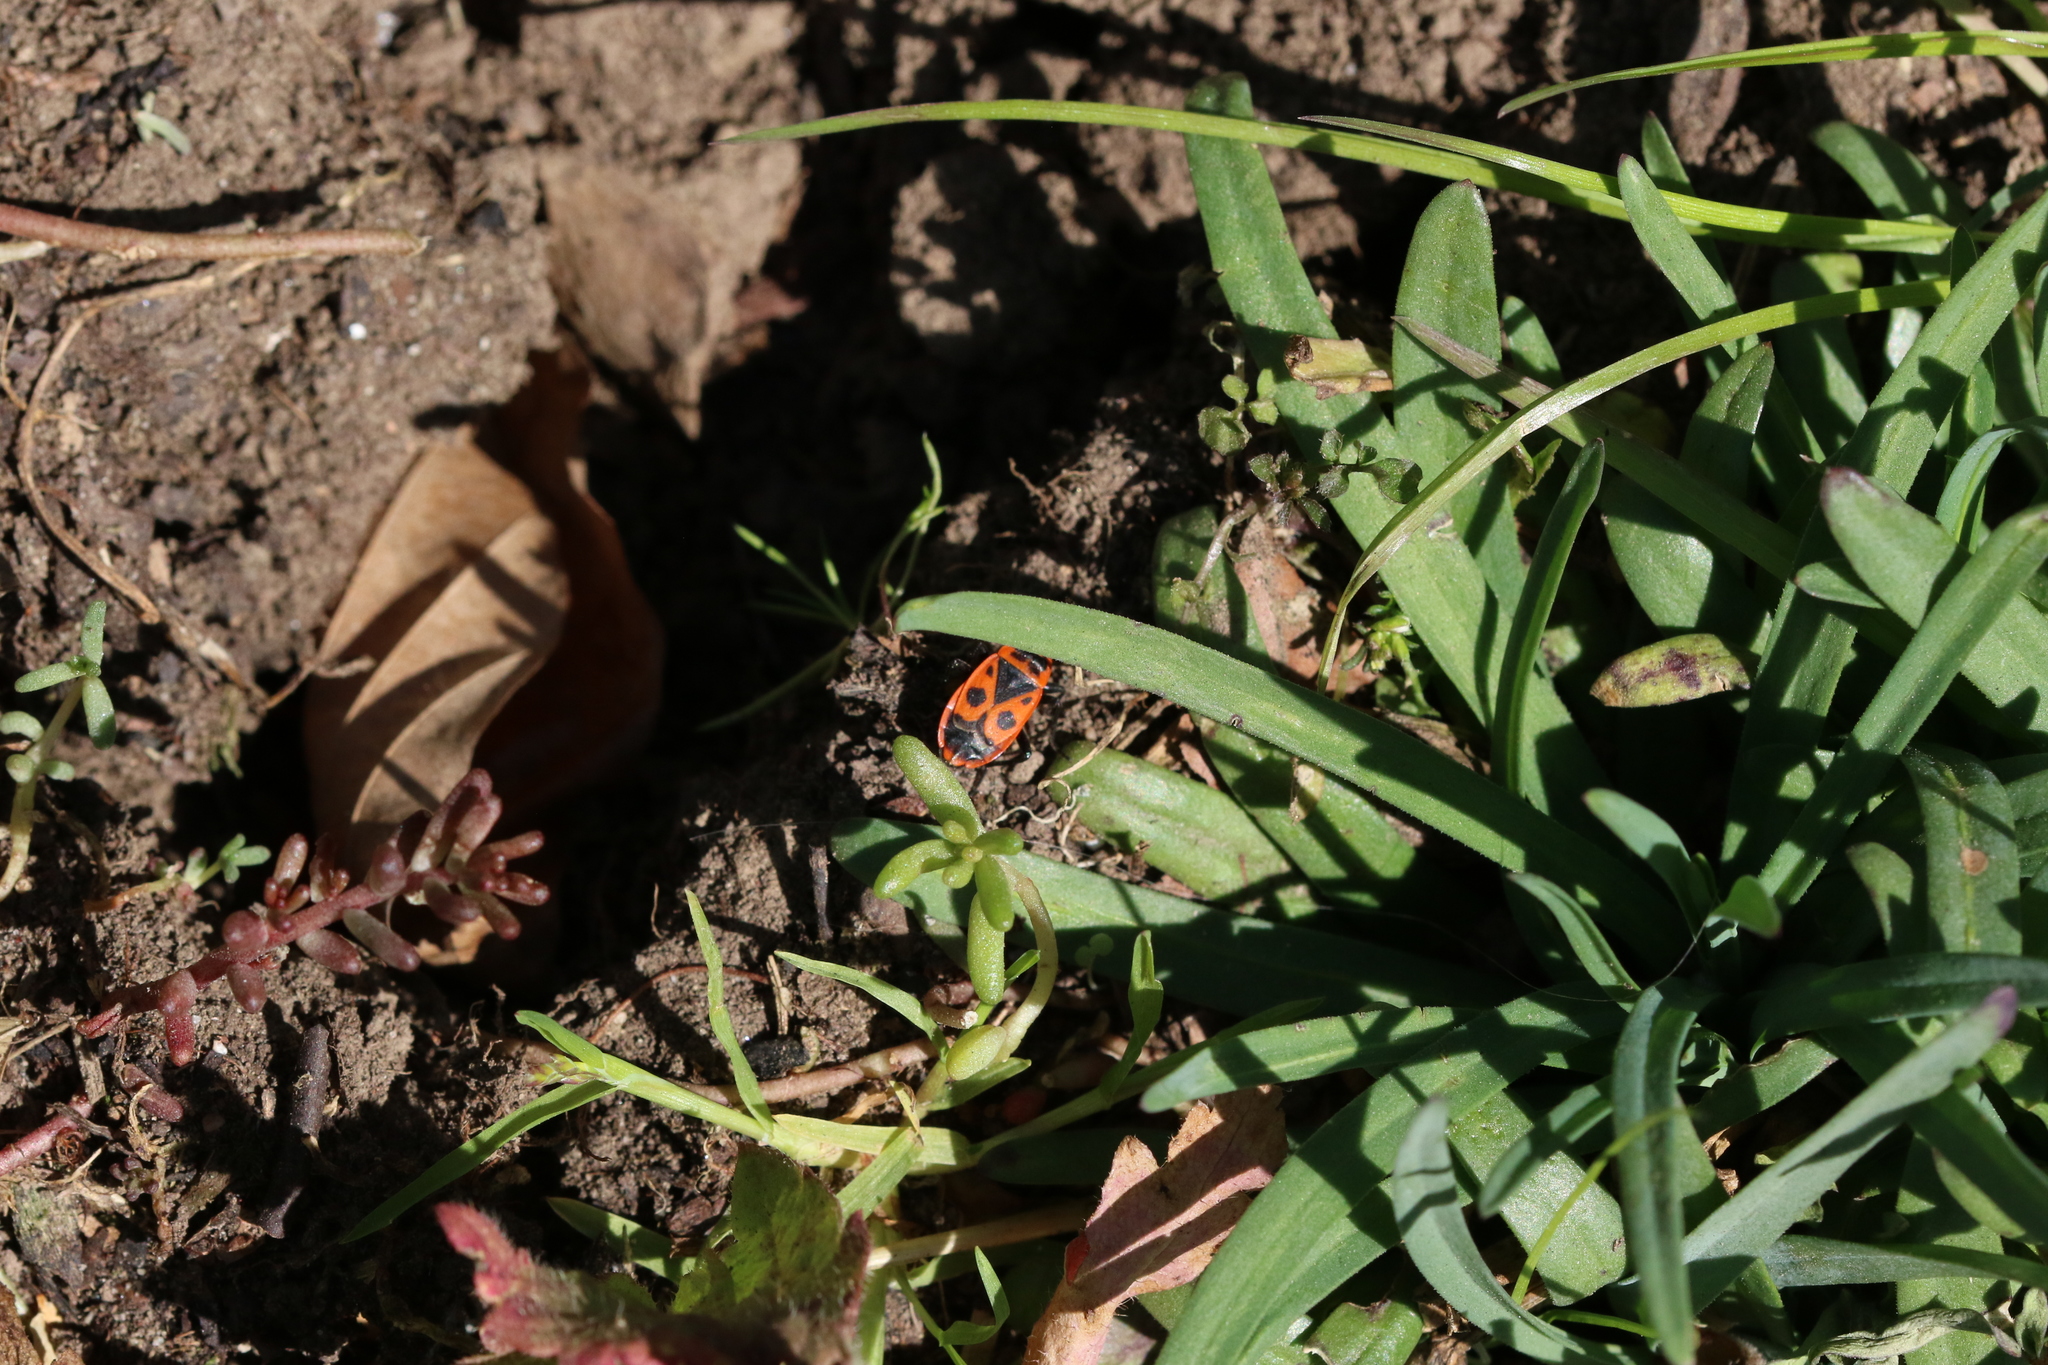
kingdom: Animalia
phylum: Arthropoda
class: Insecta
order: Hemiptera
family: Pyrrhocoridae
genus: Pyrrhocoris
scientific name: Pyrrhocoris apterus
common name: Firebug
